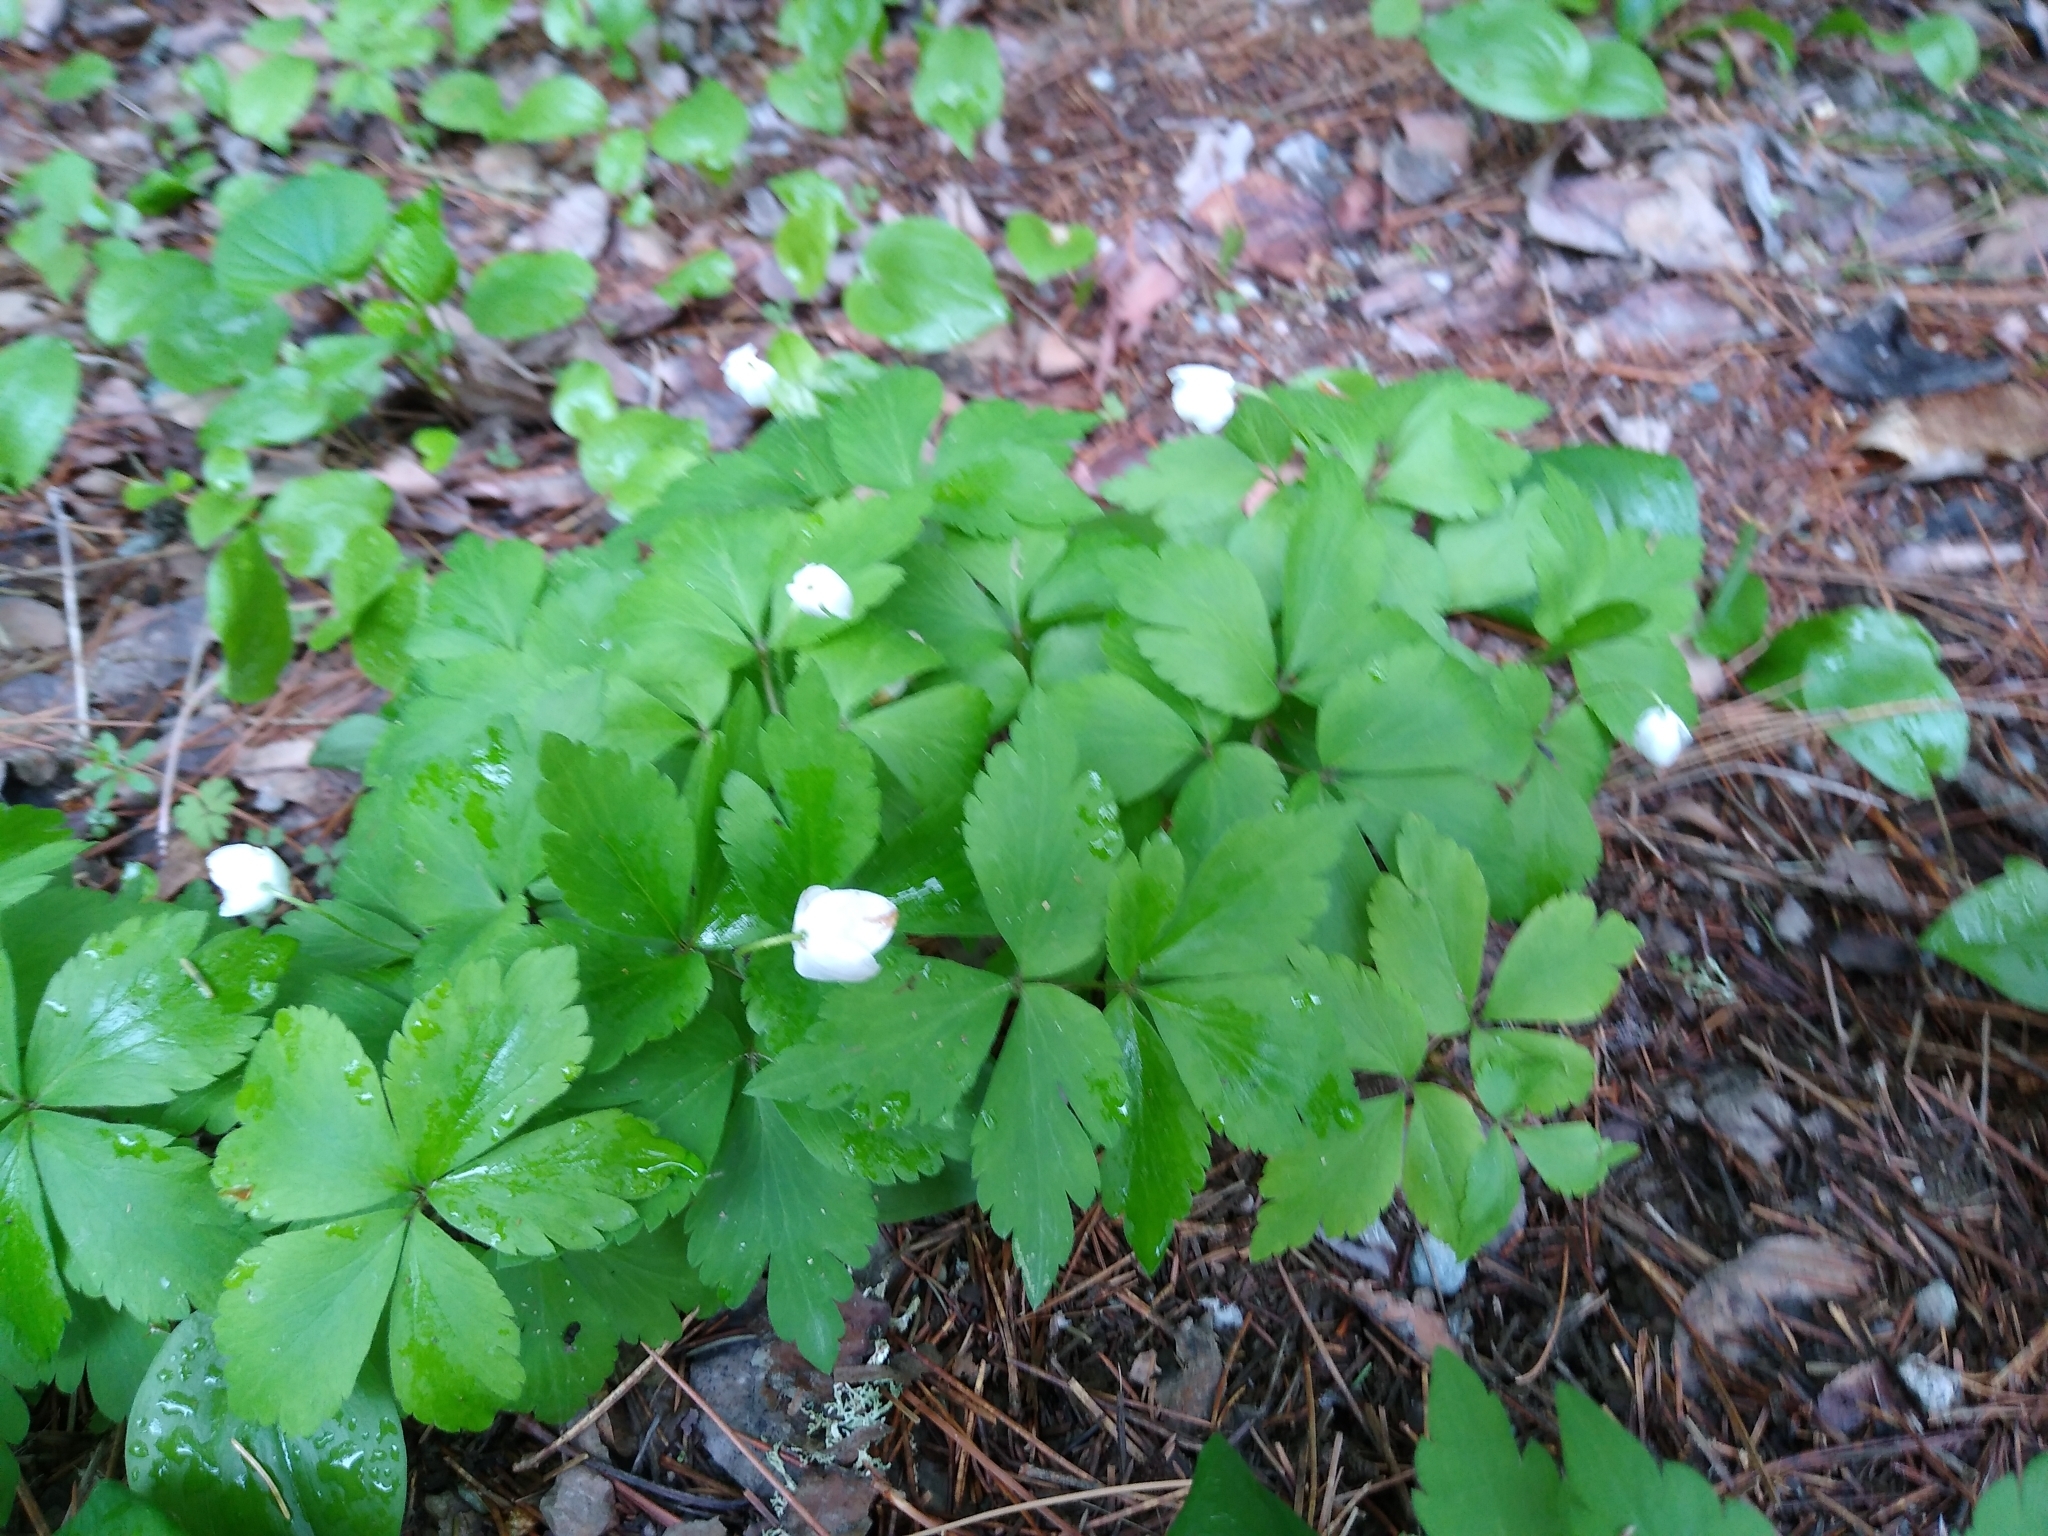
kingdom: Plantae
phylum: Tracheophyta
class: Magnoliopsida
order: Ranunculales
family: Ranunculaceae
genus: Anemone
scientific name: Anemone quinquefolia
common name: Wood anemone
